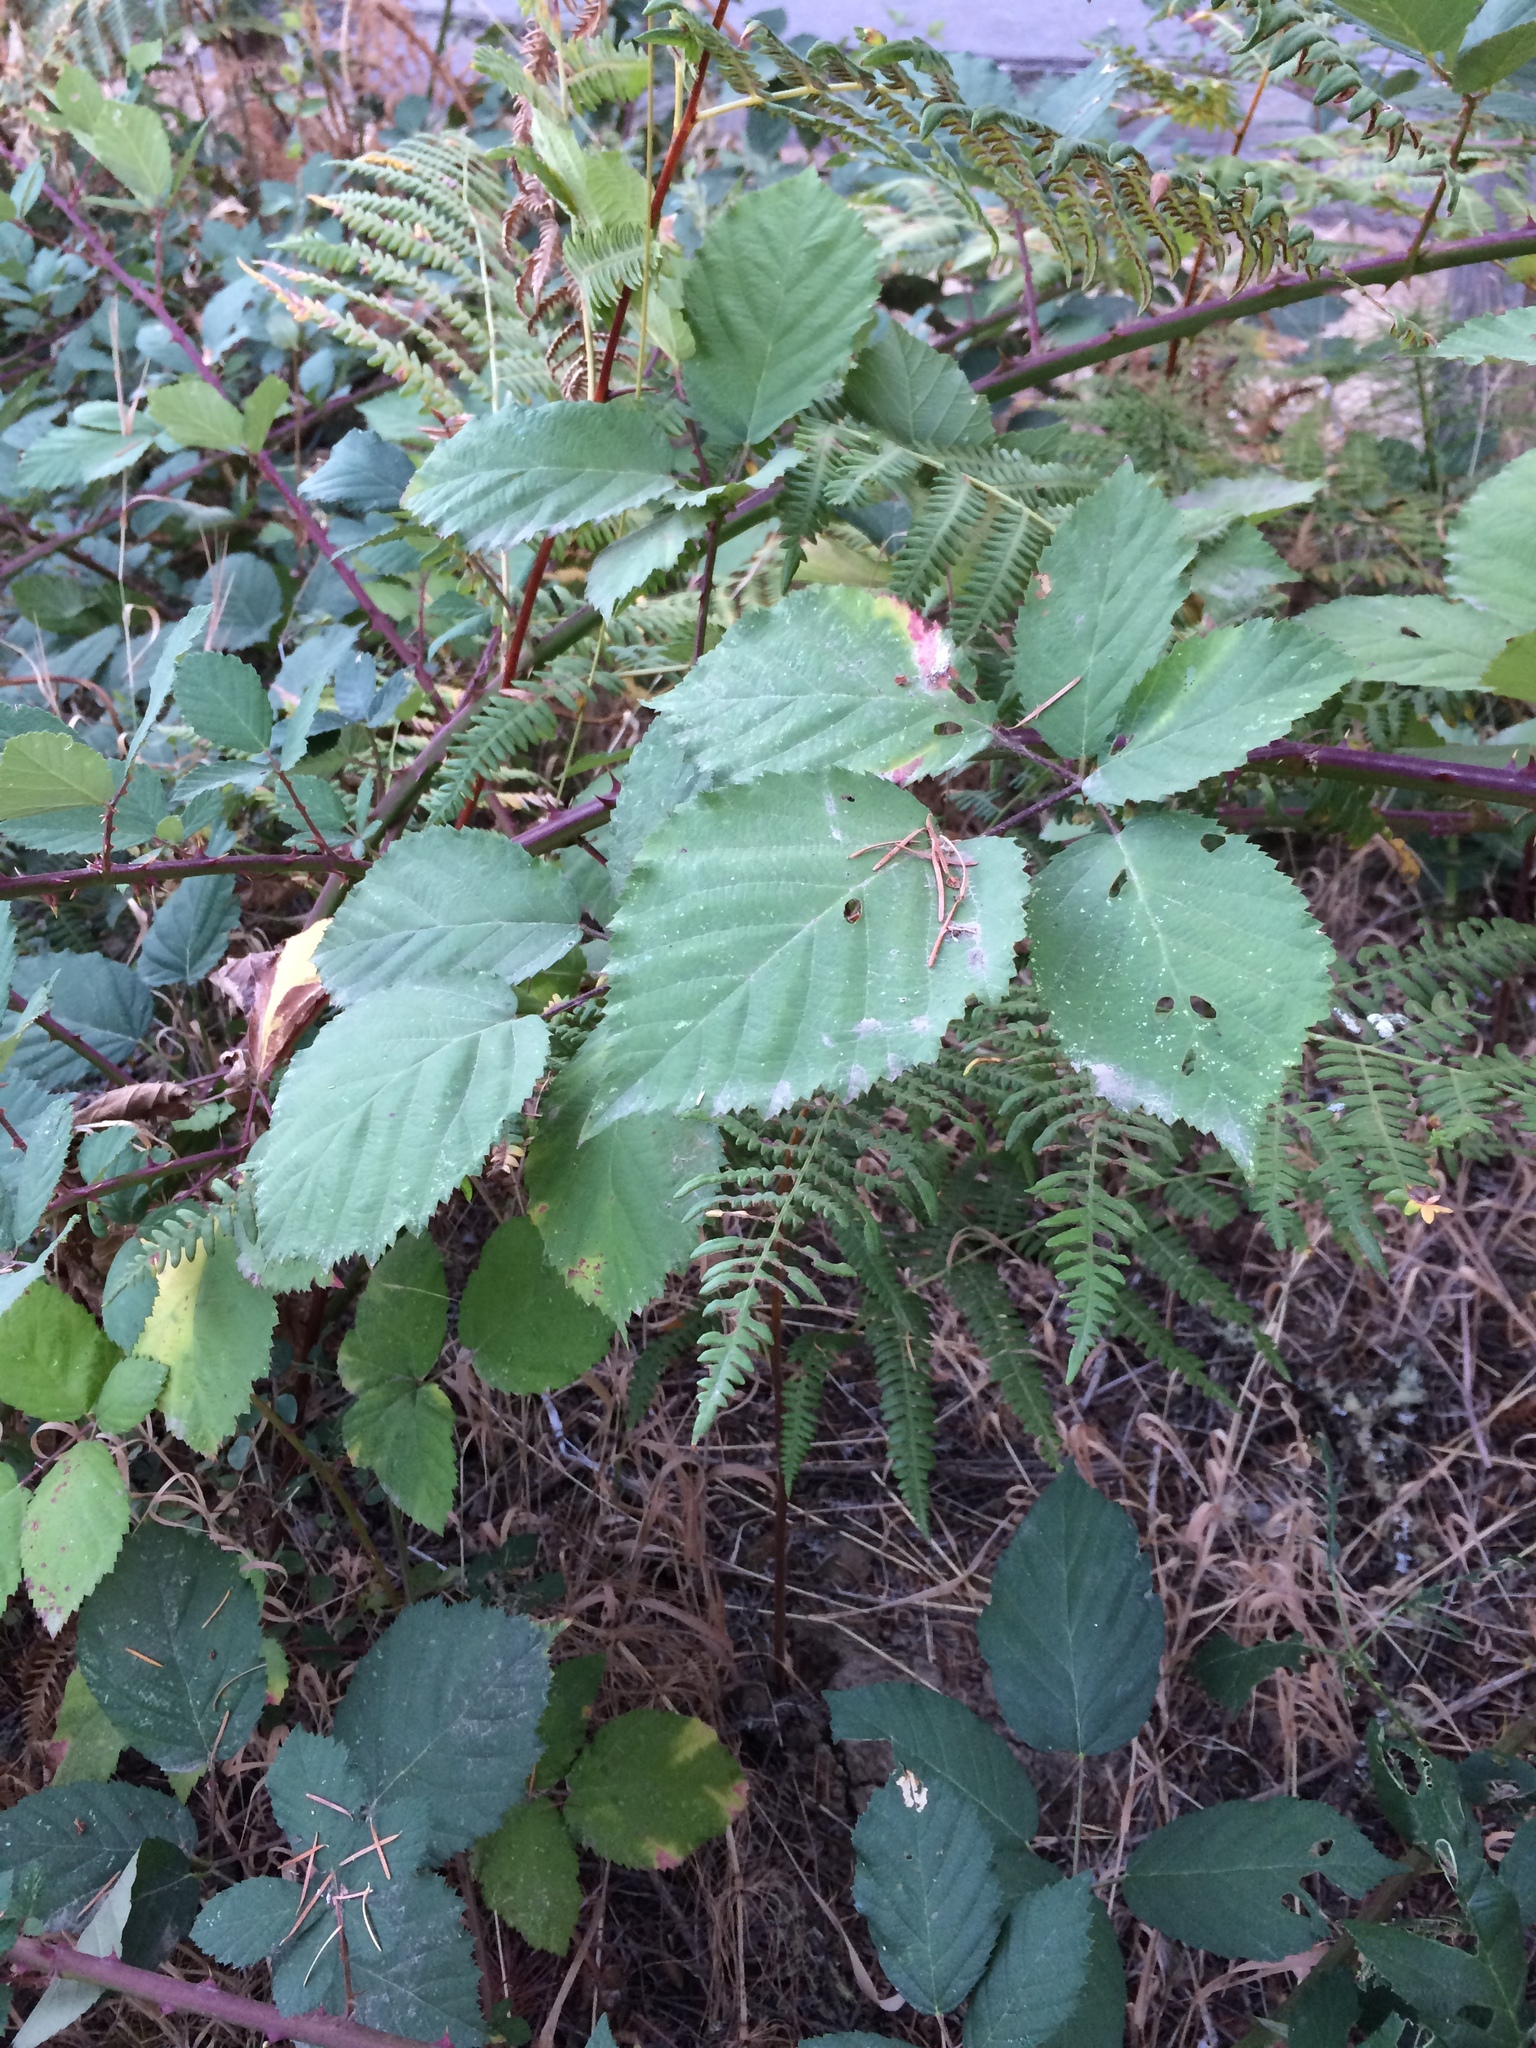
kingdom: Plantae
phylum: Tracheophyta
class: Magnoliopsida
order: Rosales
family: Rosaceae
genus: Rubus
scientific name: Rubus armeniacus
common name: Himalayan blackberry
